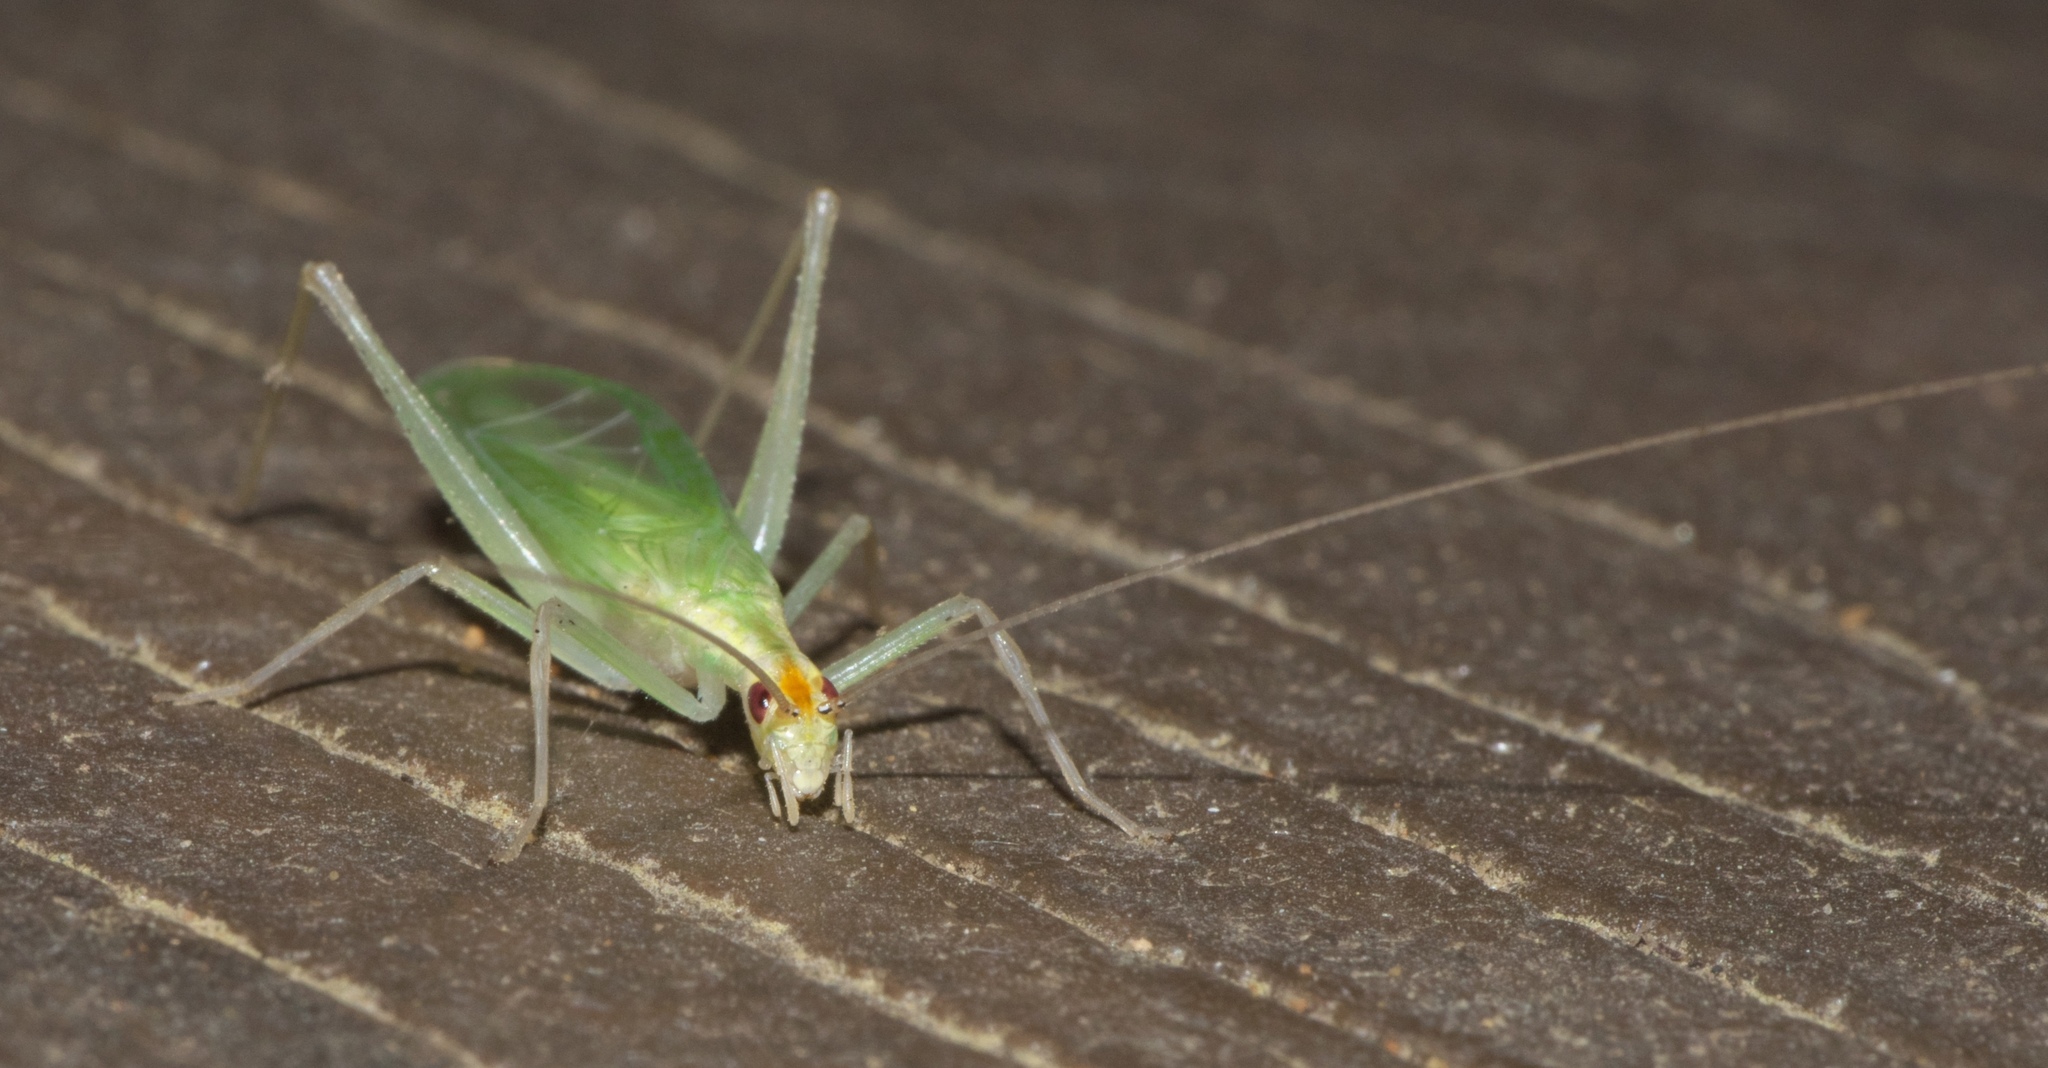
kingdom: Animalia
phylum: Arthropoda
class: Insecta
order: Orthoptera
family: Gryllidae
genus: Oecanthus
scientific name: Oecanthus niveus
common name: Narrow-winged tree cricket
